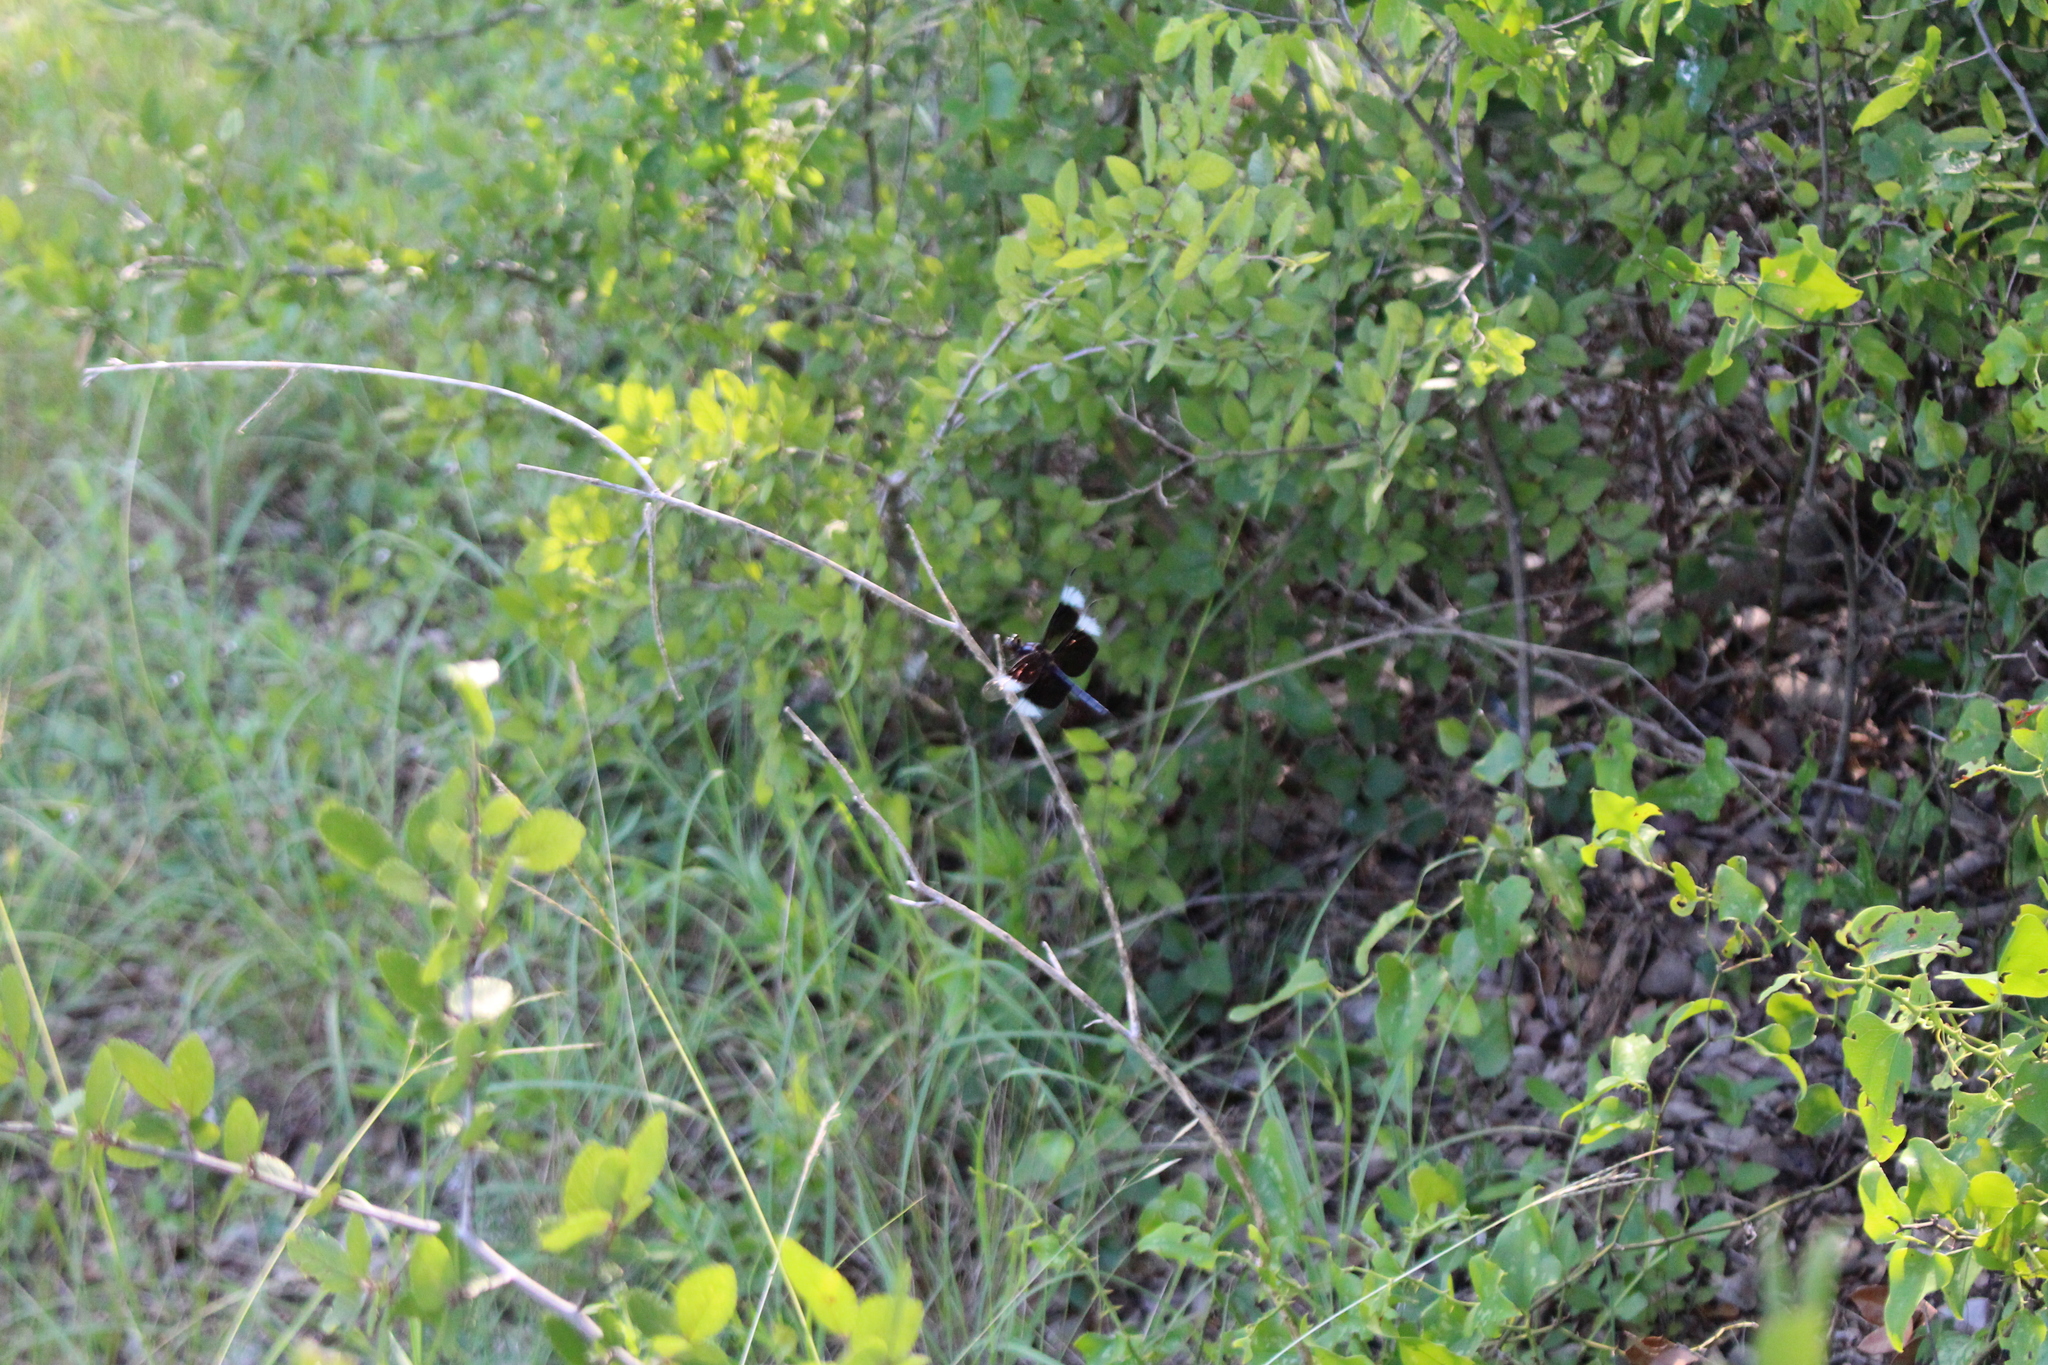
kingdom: Animalia
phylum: Arthropoda
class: Insecta
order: Odonata
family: Libellulidae
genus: Libellula
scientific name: Libellula luctuosa
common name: Widow skimmer
